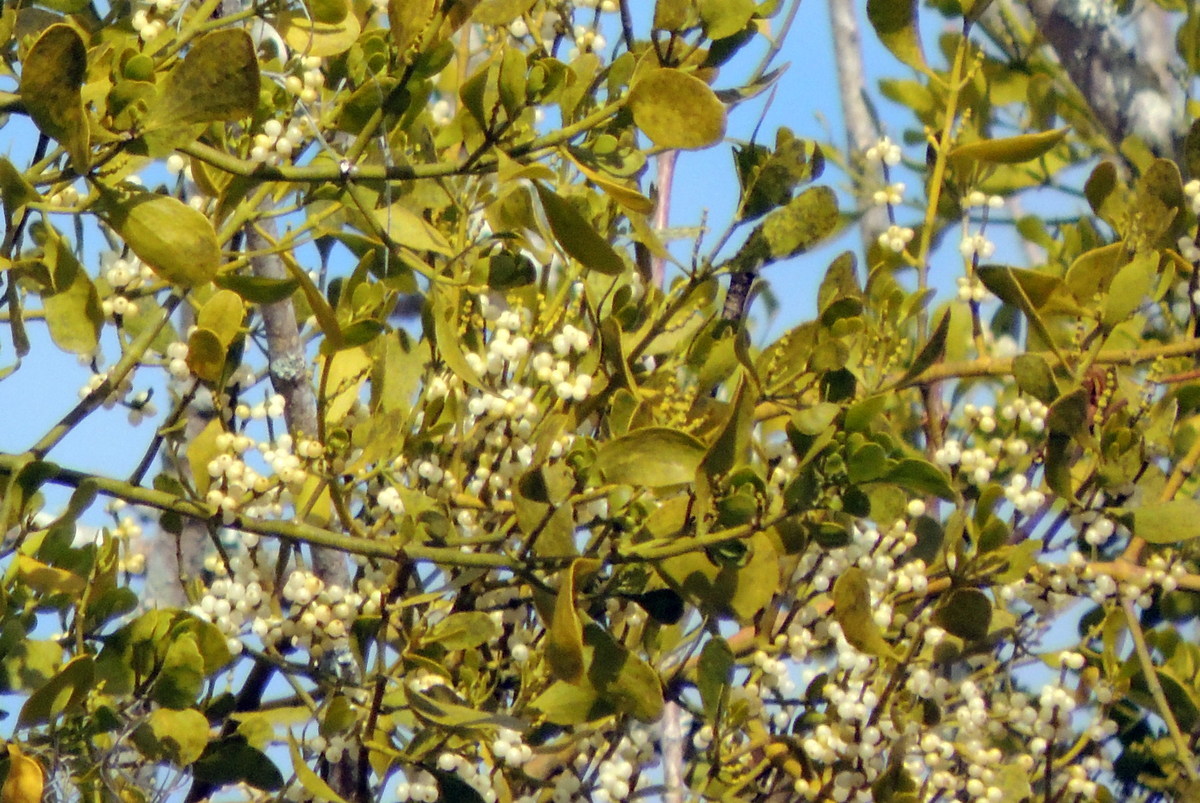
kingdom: Plantae
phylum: Tracheophyta
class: Magnoliopsida
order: Santalales
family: Viscaceae
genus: Phoradendron
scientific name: Phoradendron leucarpum
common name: Pacific mistletoe
